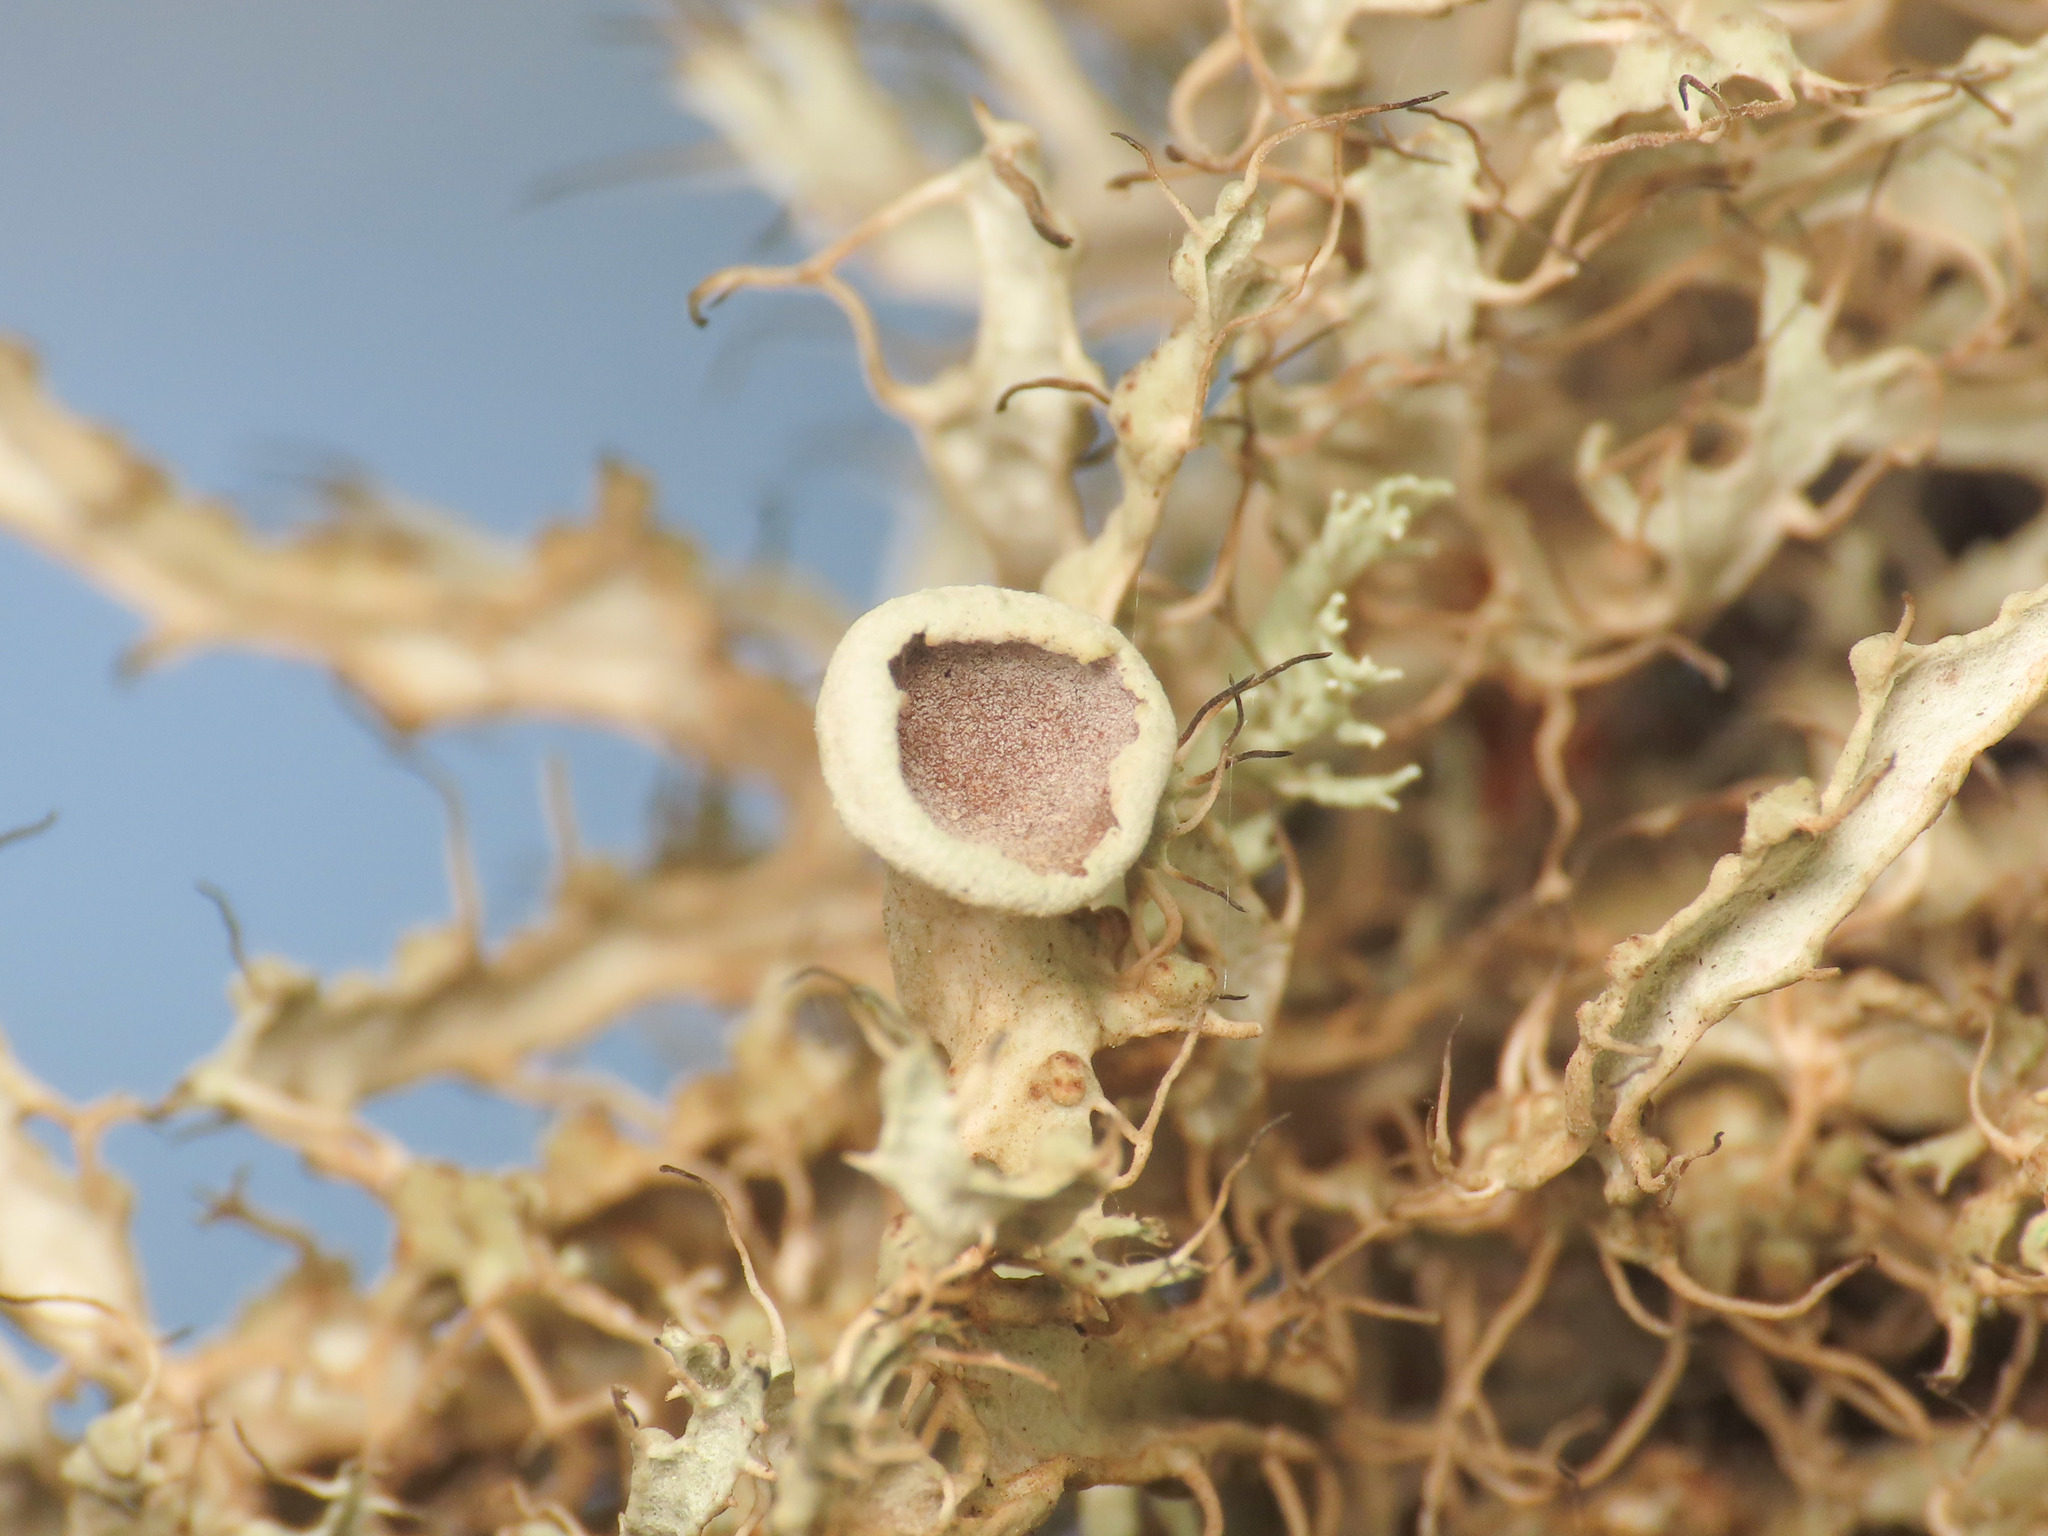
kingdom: Fungi
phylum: Ascomycota
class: Lecanoromycetes
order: Caliciales
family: Physciaceae
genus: Anaptychia
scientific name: Anaptychia ciliaris
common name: Great ciliated lichen
